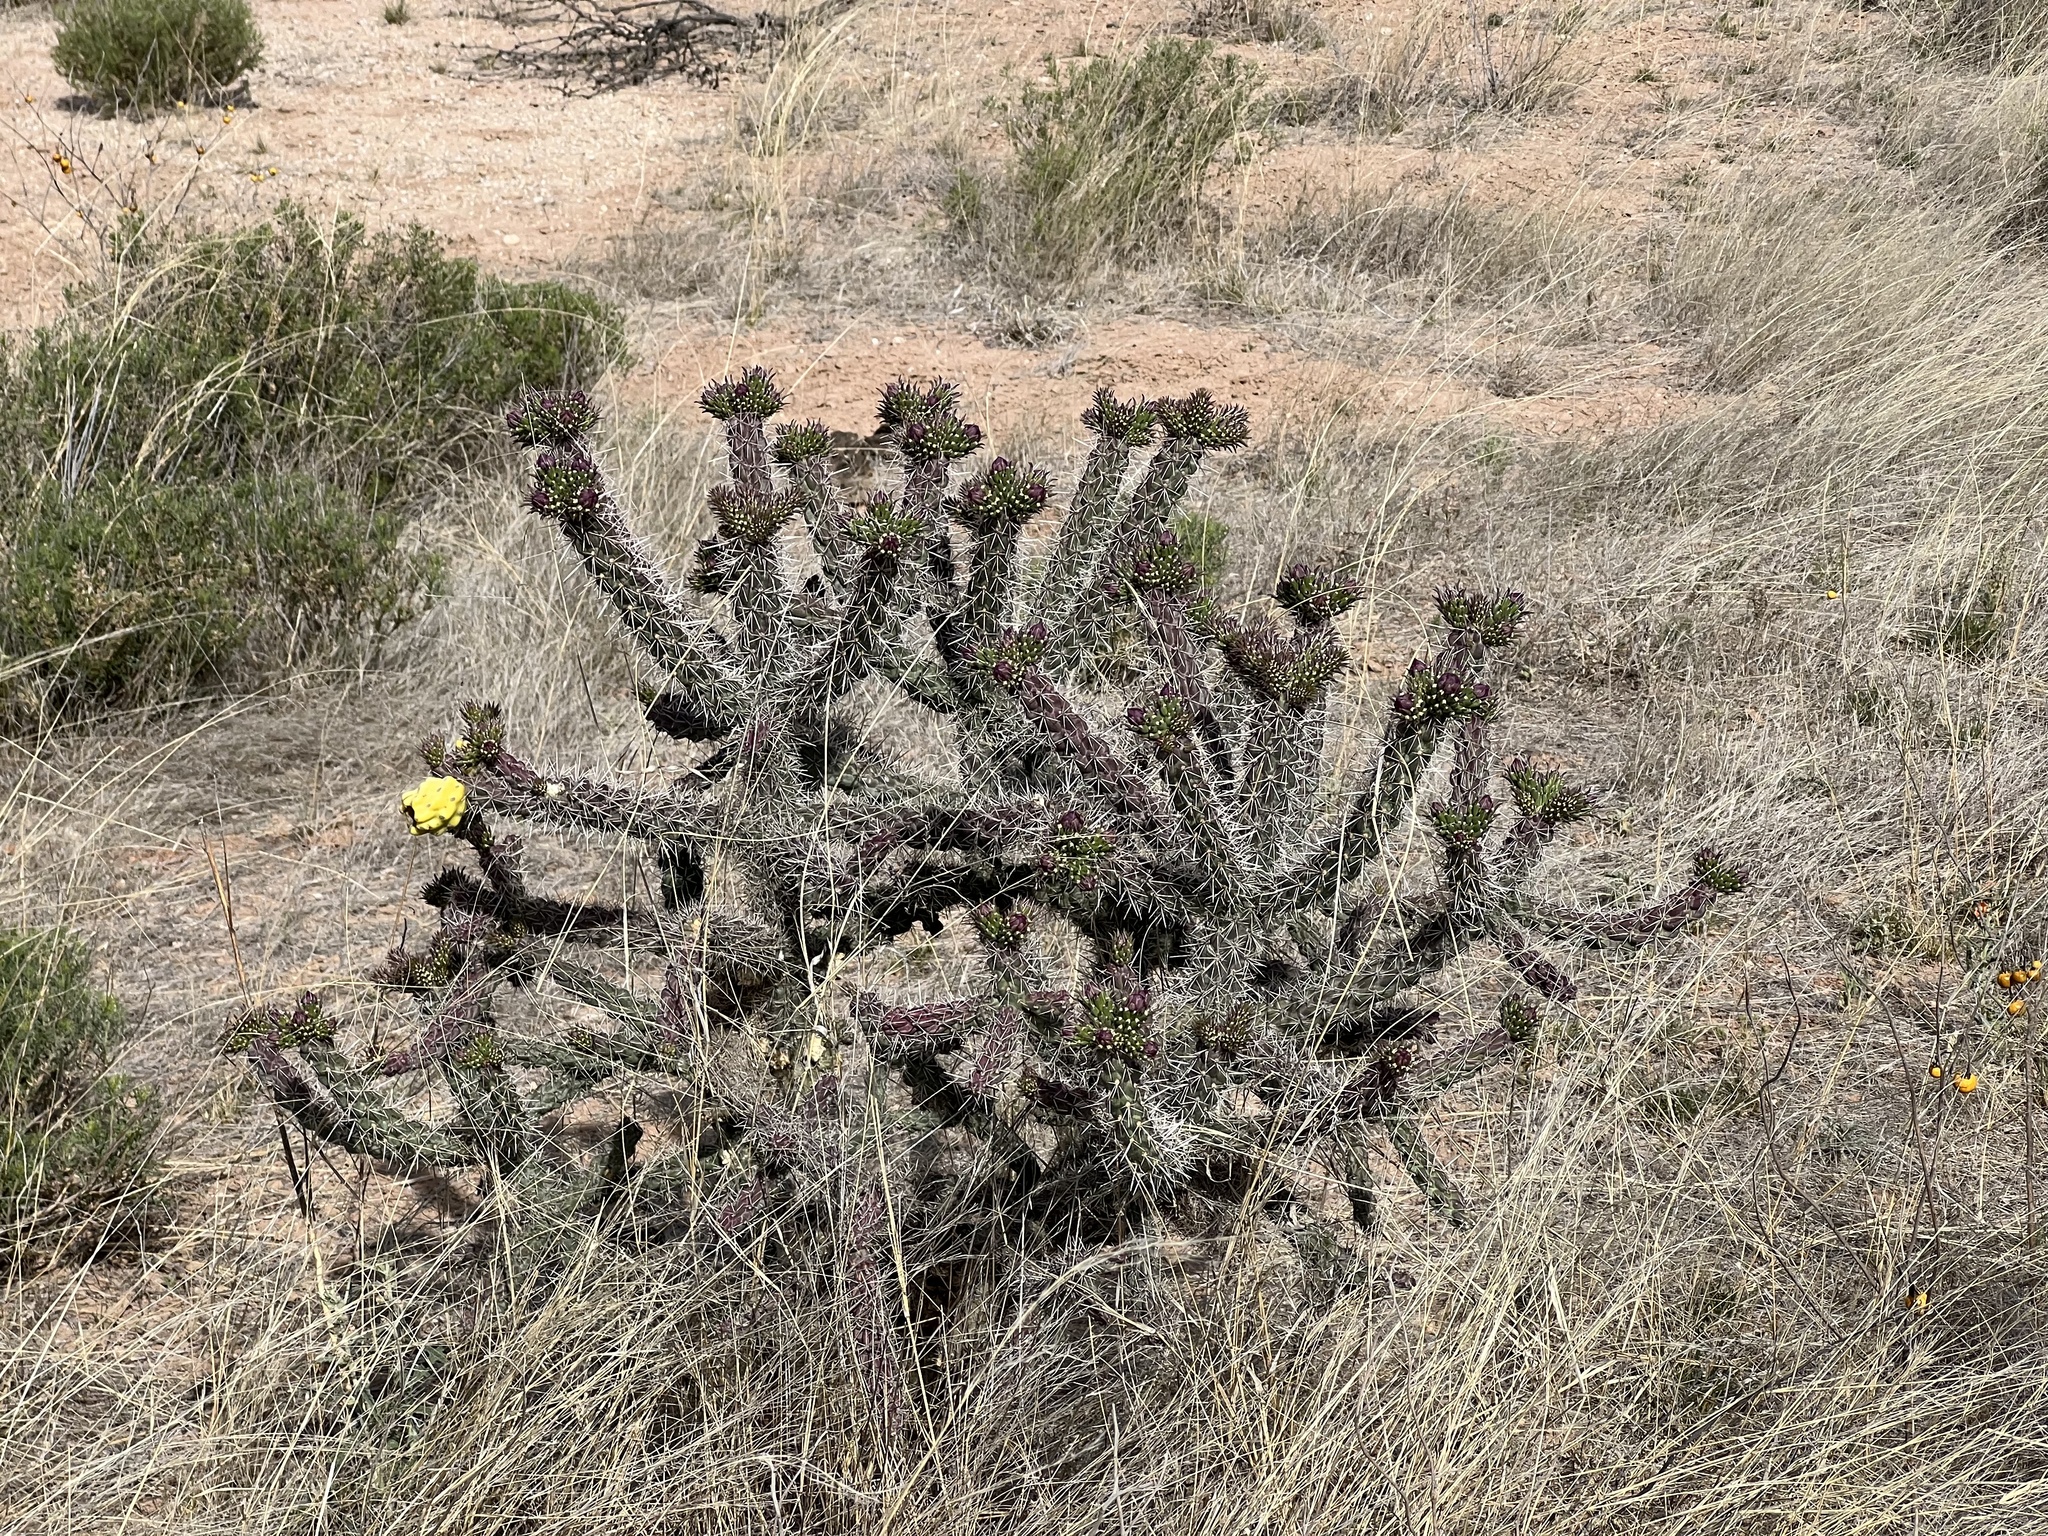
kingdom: Plantae
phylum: Tracheophyta
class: Magnoliopsida
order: Caryophyllales
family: Cactaceae
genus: Cylindropuntia
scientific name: Cylindropuntia imbricata
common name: Candelabrum cactus
